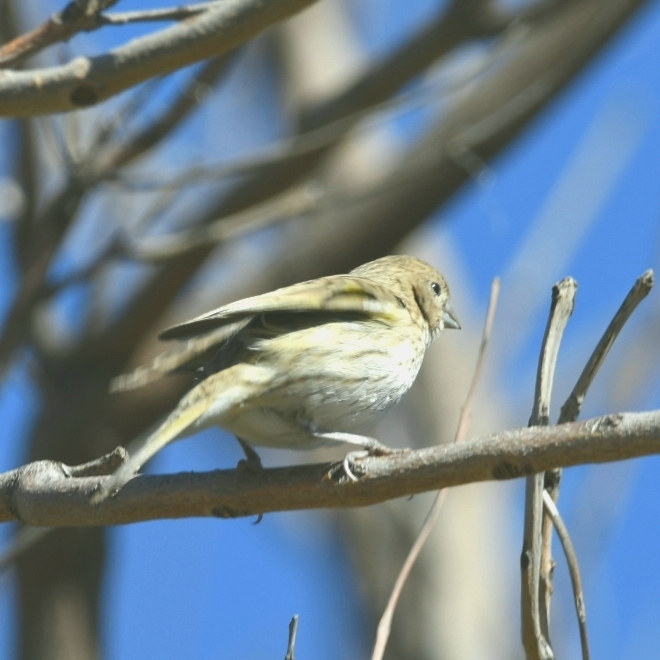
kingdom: Animalia
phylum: Chordata
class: Aves
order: Passeriformes
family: Thraupidae
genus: Sicalis
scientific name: Sicalis flaveola
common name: Saffron finch
